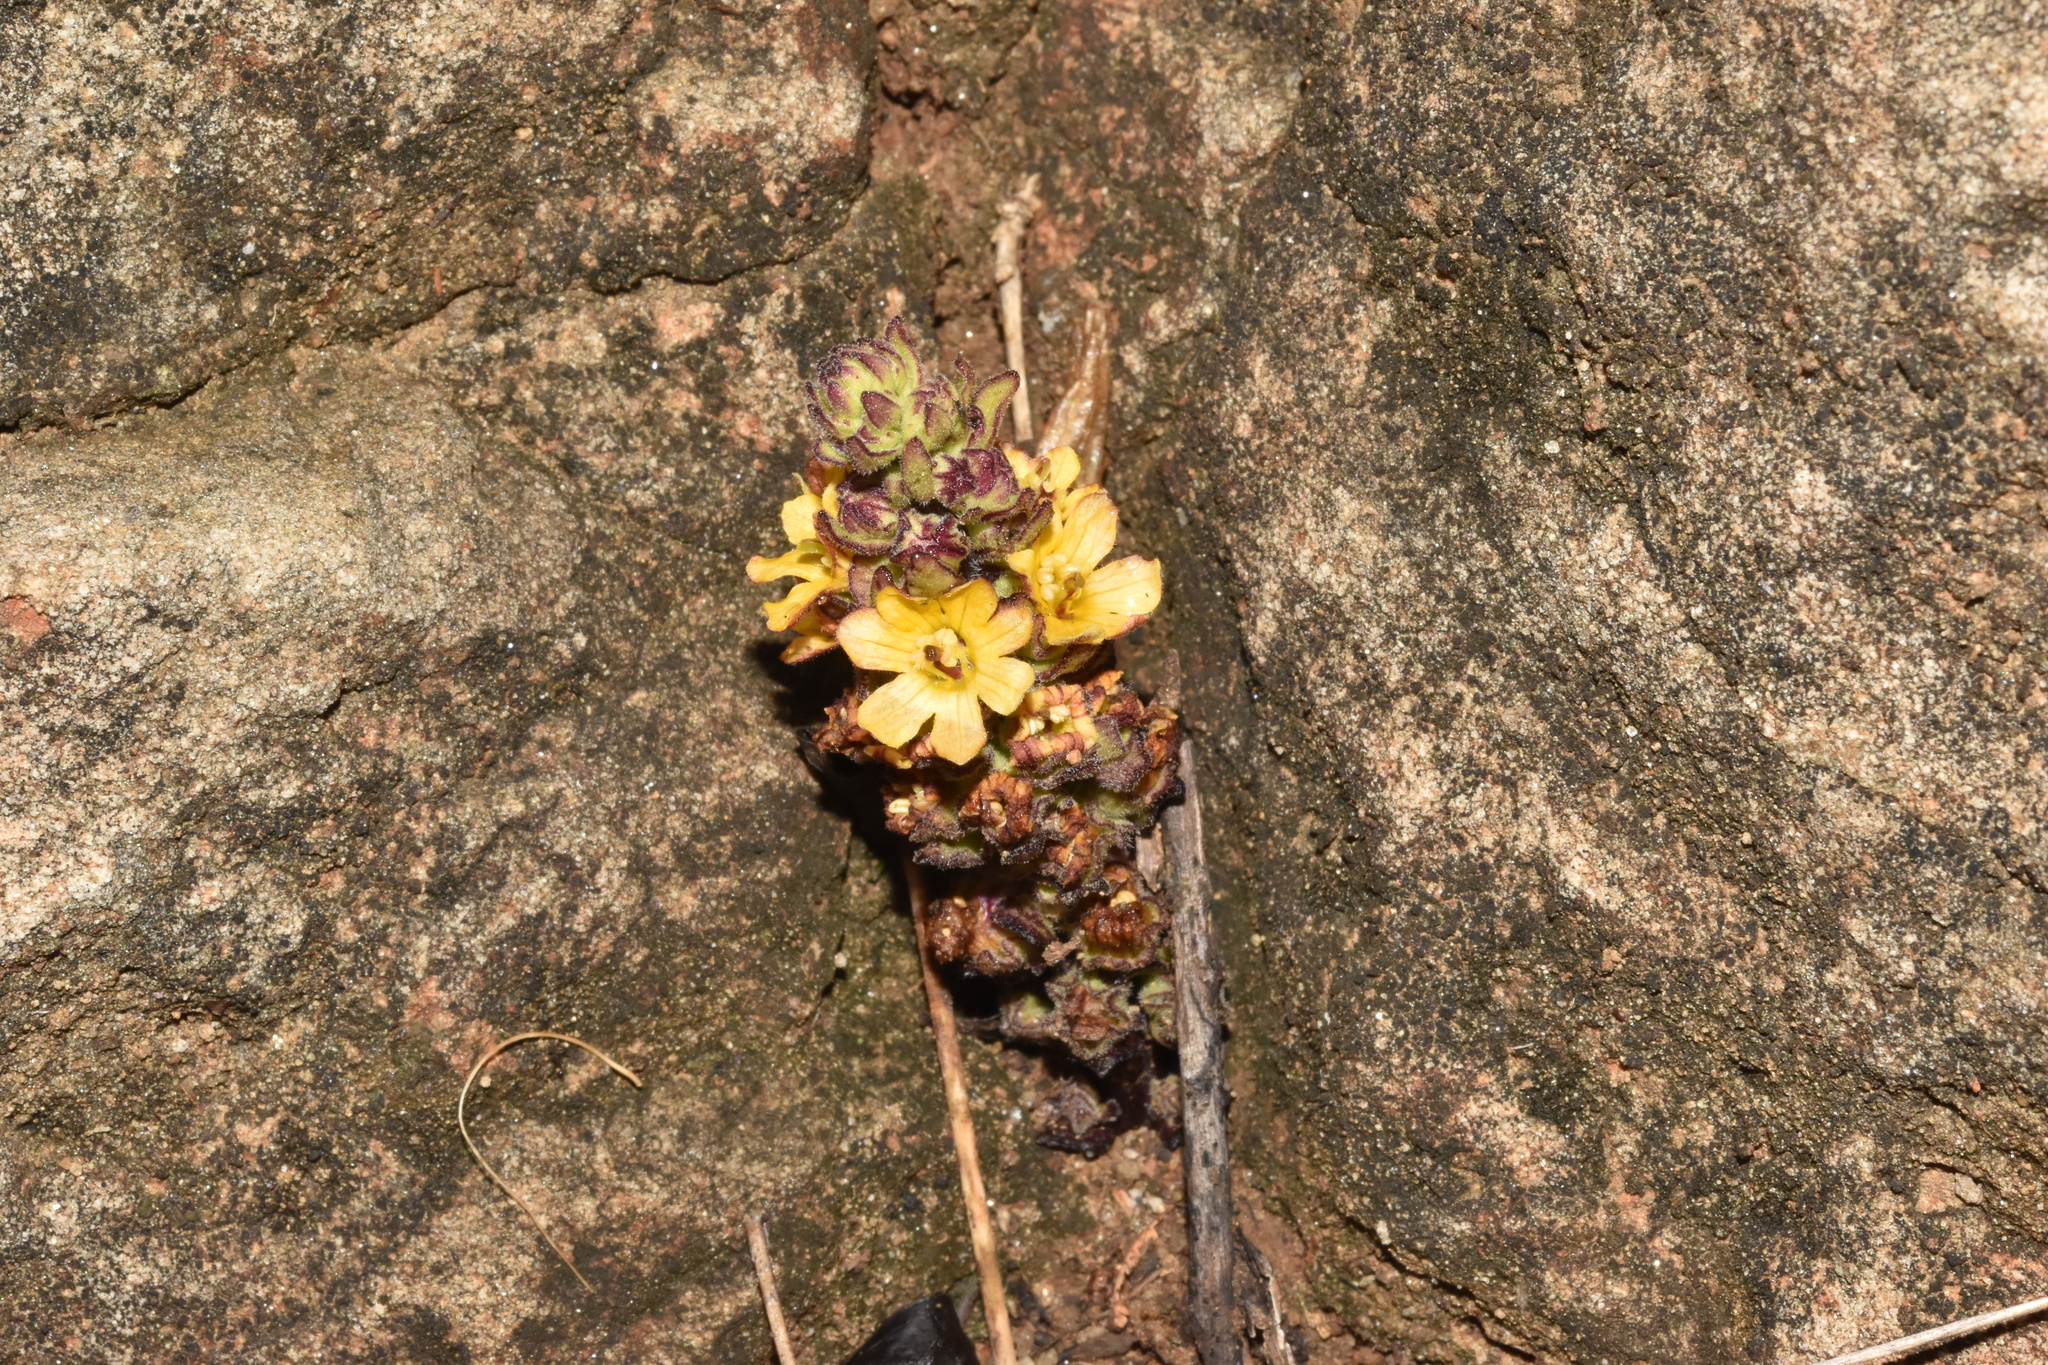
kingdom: Plantae
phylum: Tracheophyta
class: Magnoliopsida
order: Lamiales
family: Orobanchaceae
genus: Alectra
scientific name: Alectra sessiliflora
